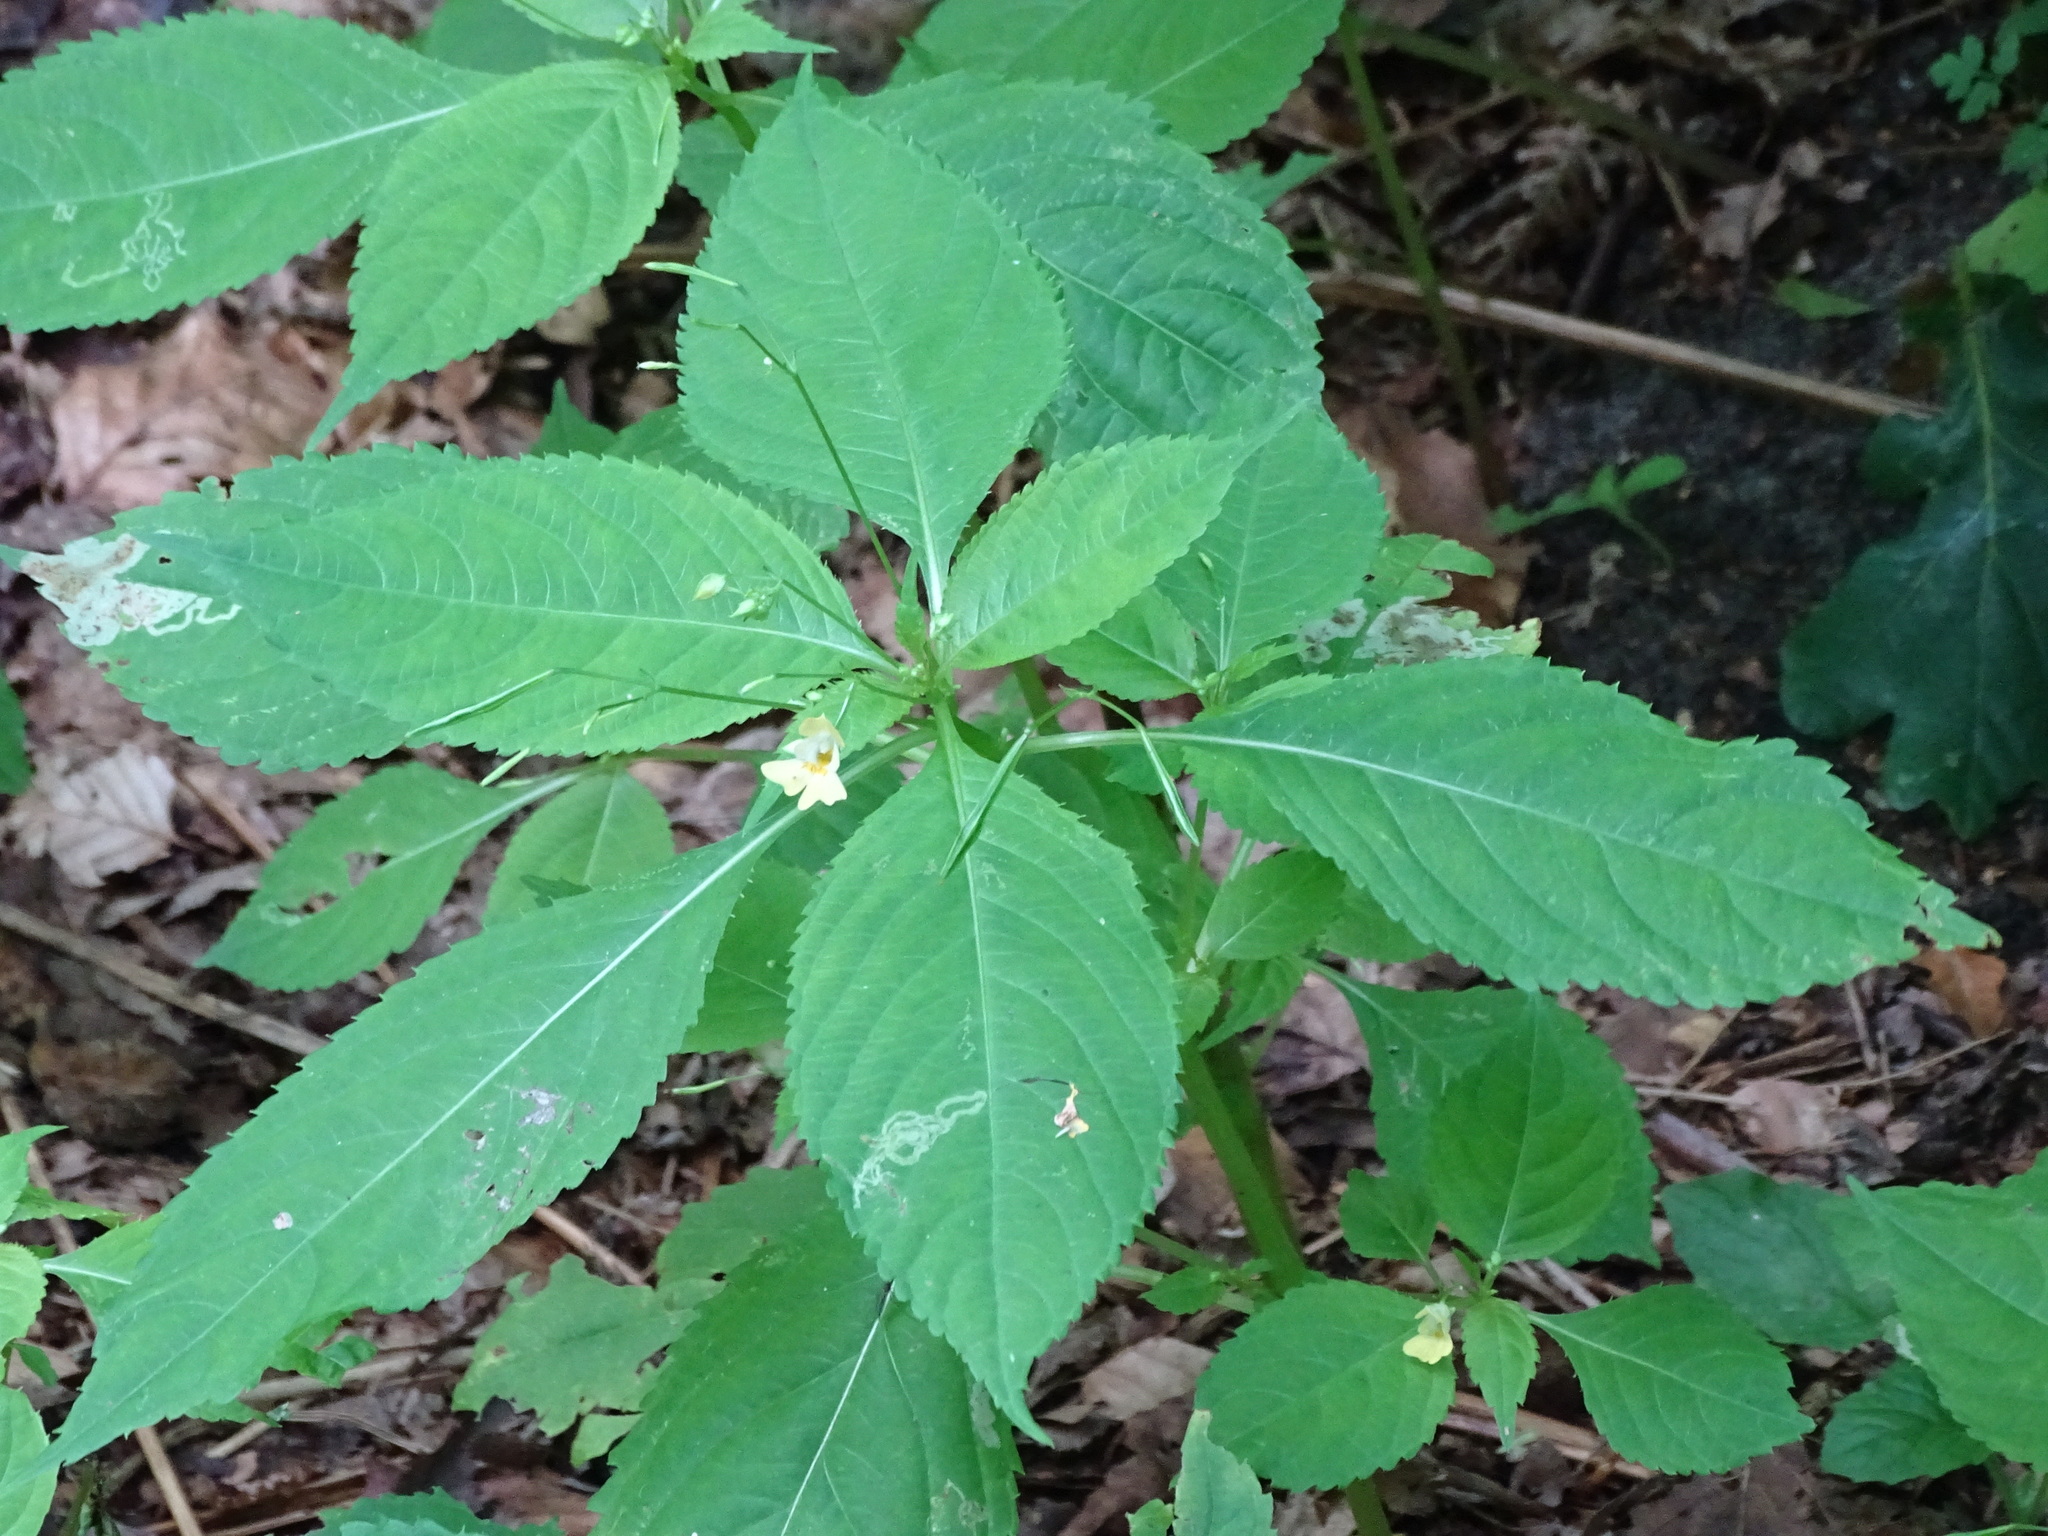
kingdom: Plantae
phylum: Tracheophyta
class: Magnoliopsida
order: Ericales
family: Balsaminaceae
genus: Impatiens
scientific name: Impatiens parviflora
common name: Small balsam
